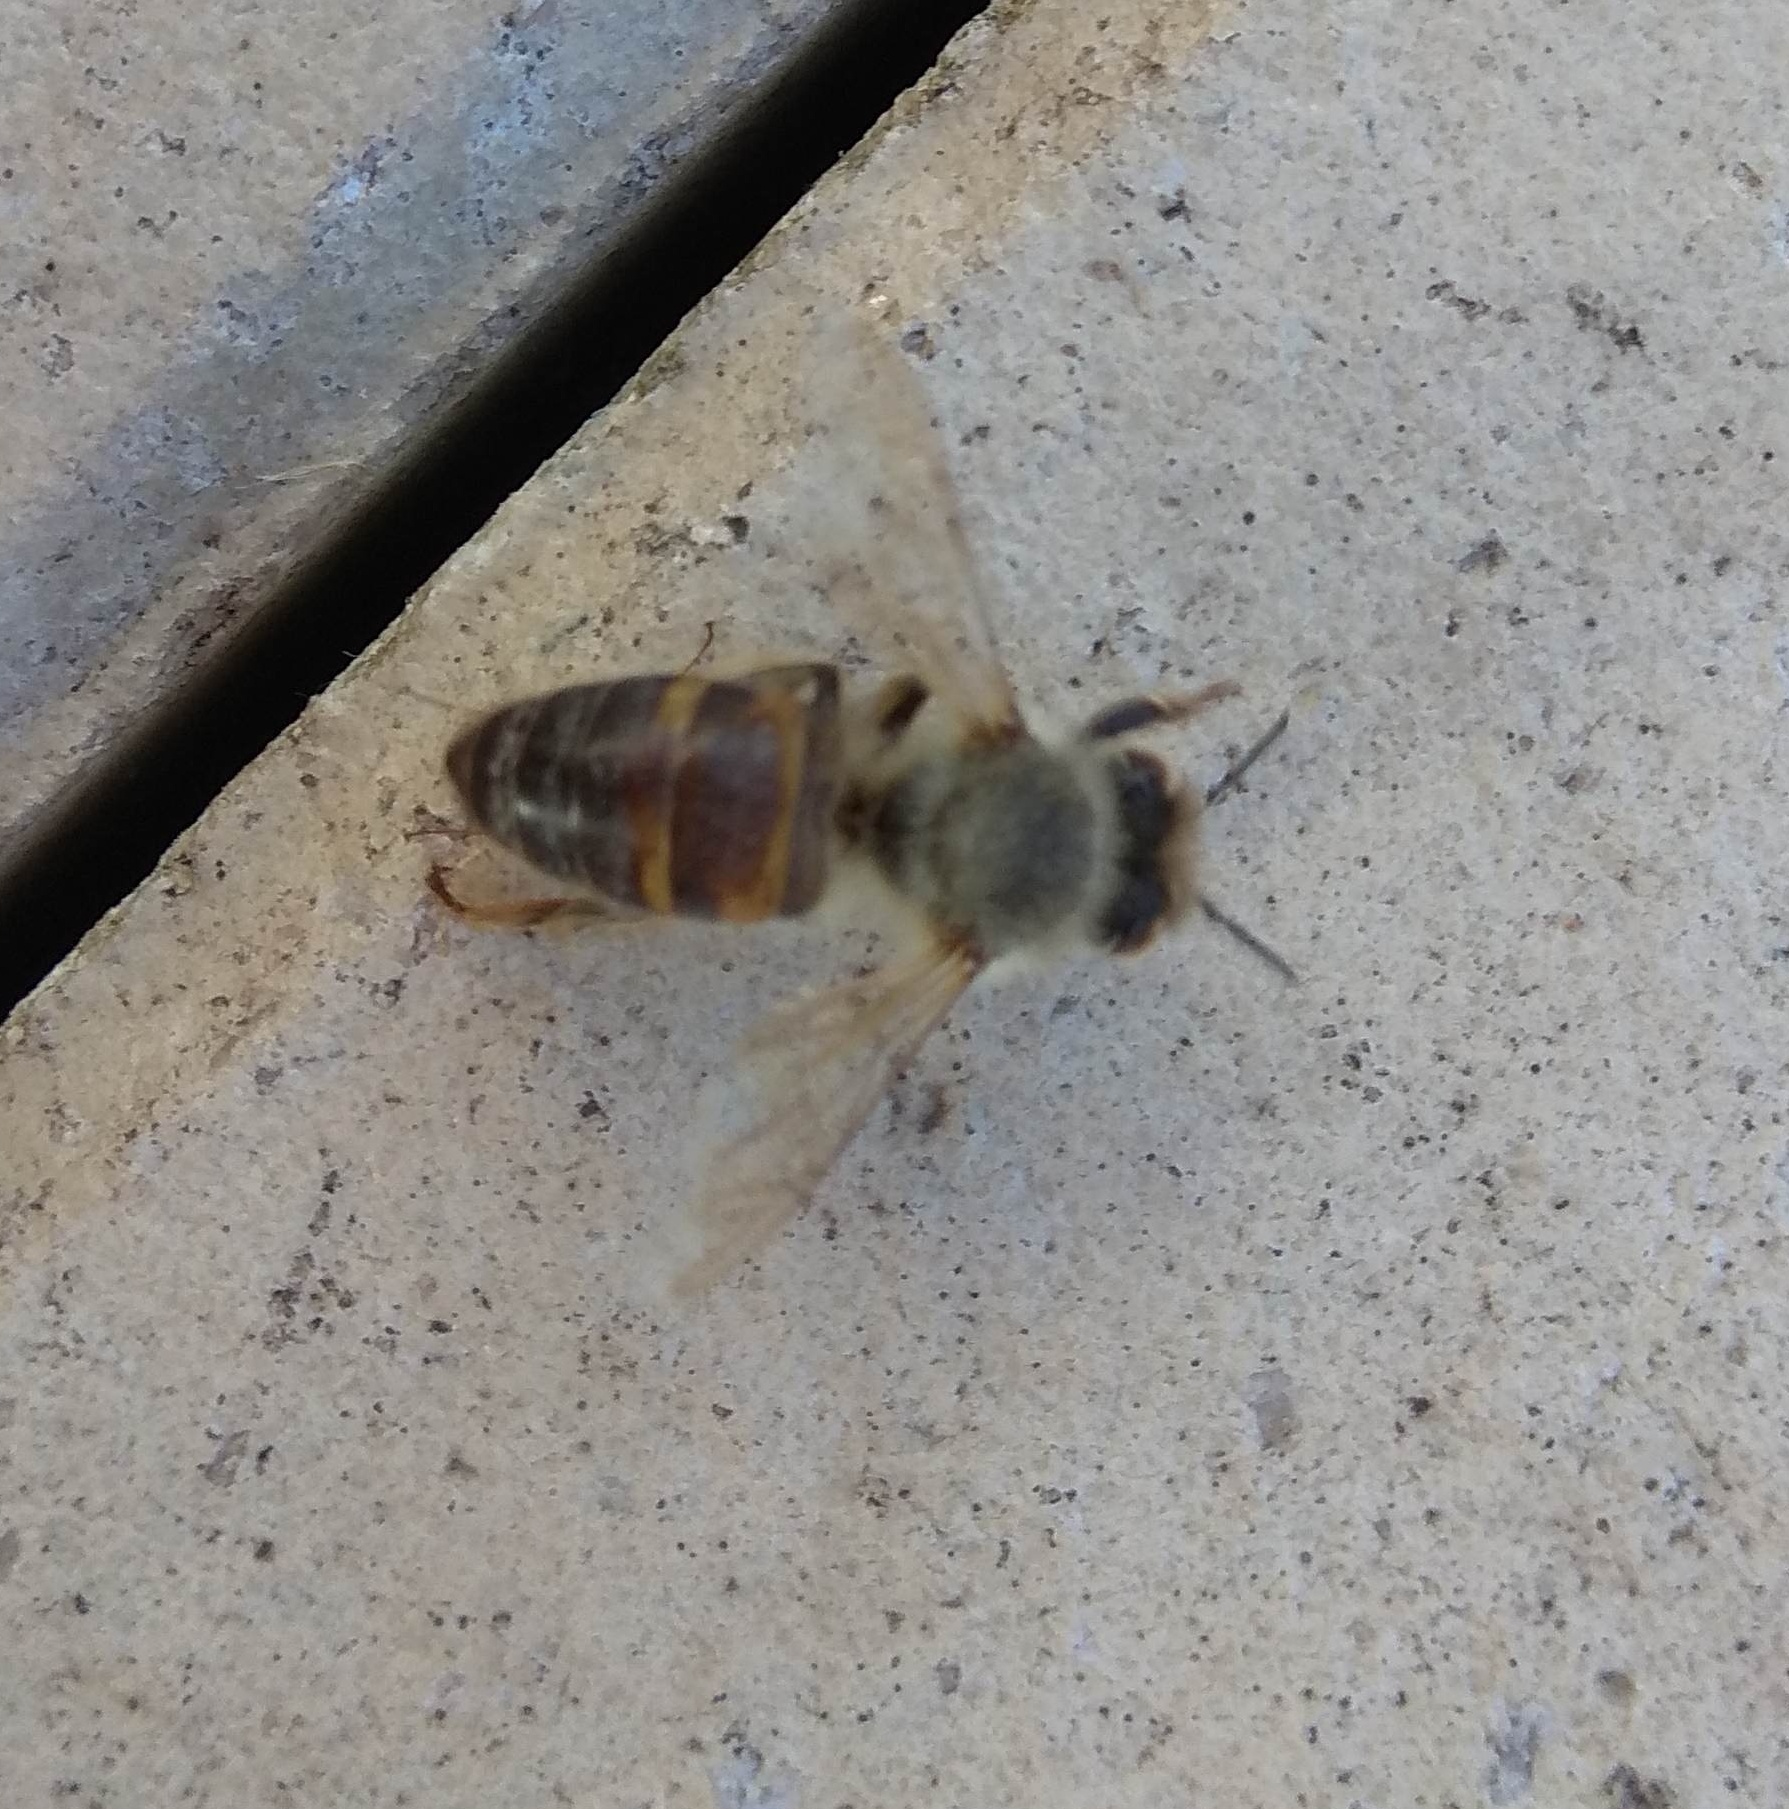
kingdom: Animalia
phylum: Arthropoda
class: Insecta
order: Hymenoptera
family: Apidae
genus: Apis
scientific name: Apis mellifera
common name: Honey bee
